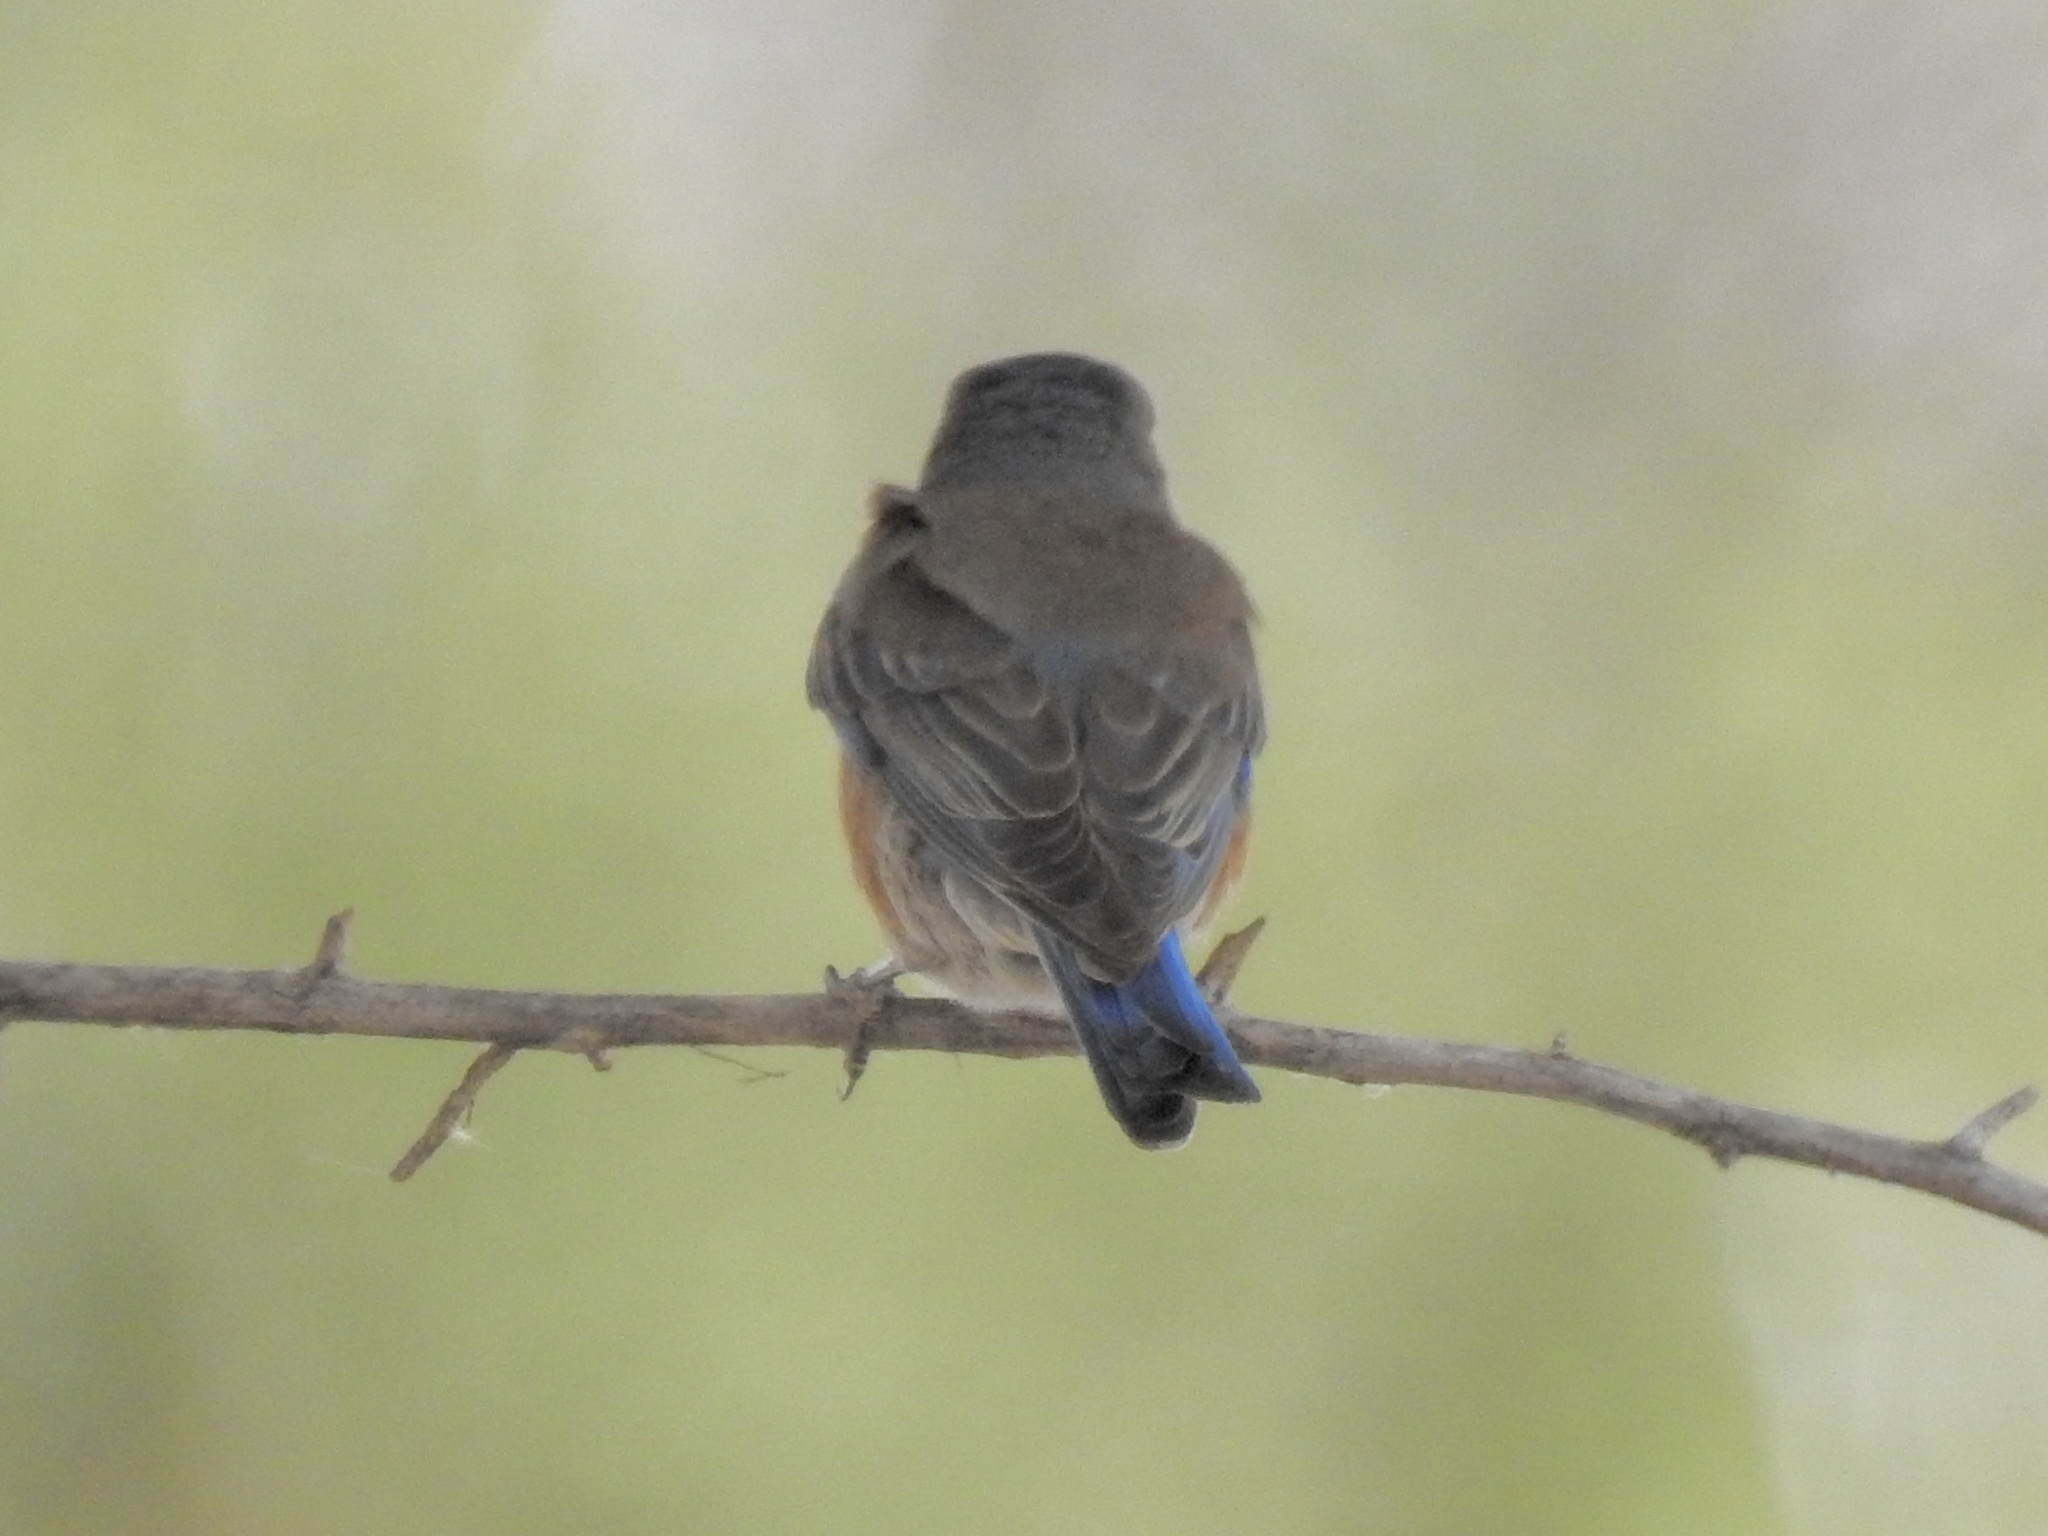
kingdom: Animalia
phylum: Chordata
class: Aves
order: Passeriformes
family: Turdidae
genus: Sialia
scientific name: Sialia mexicana
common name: Western bluebird
